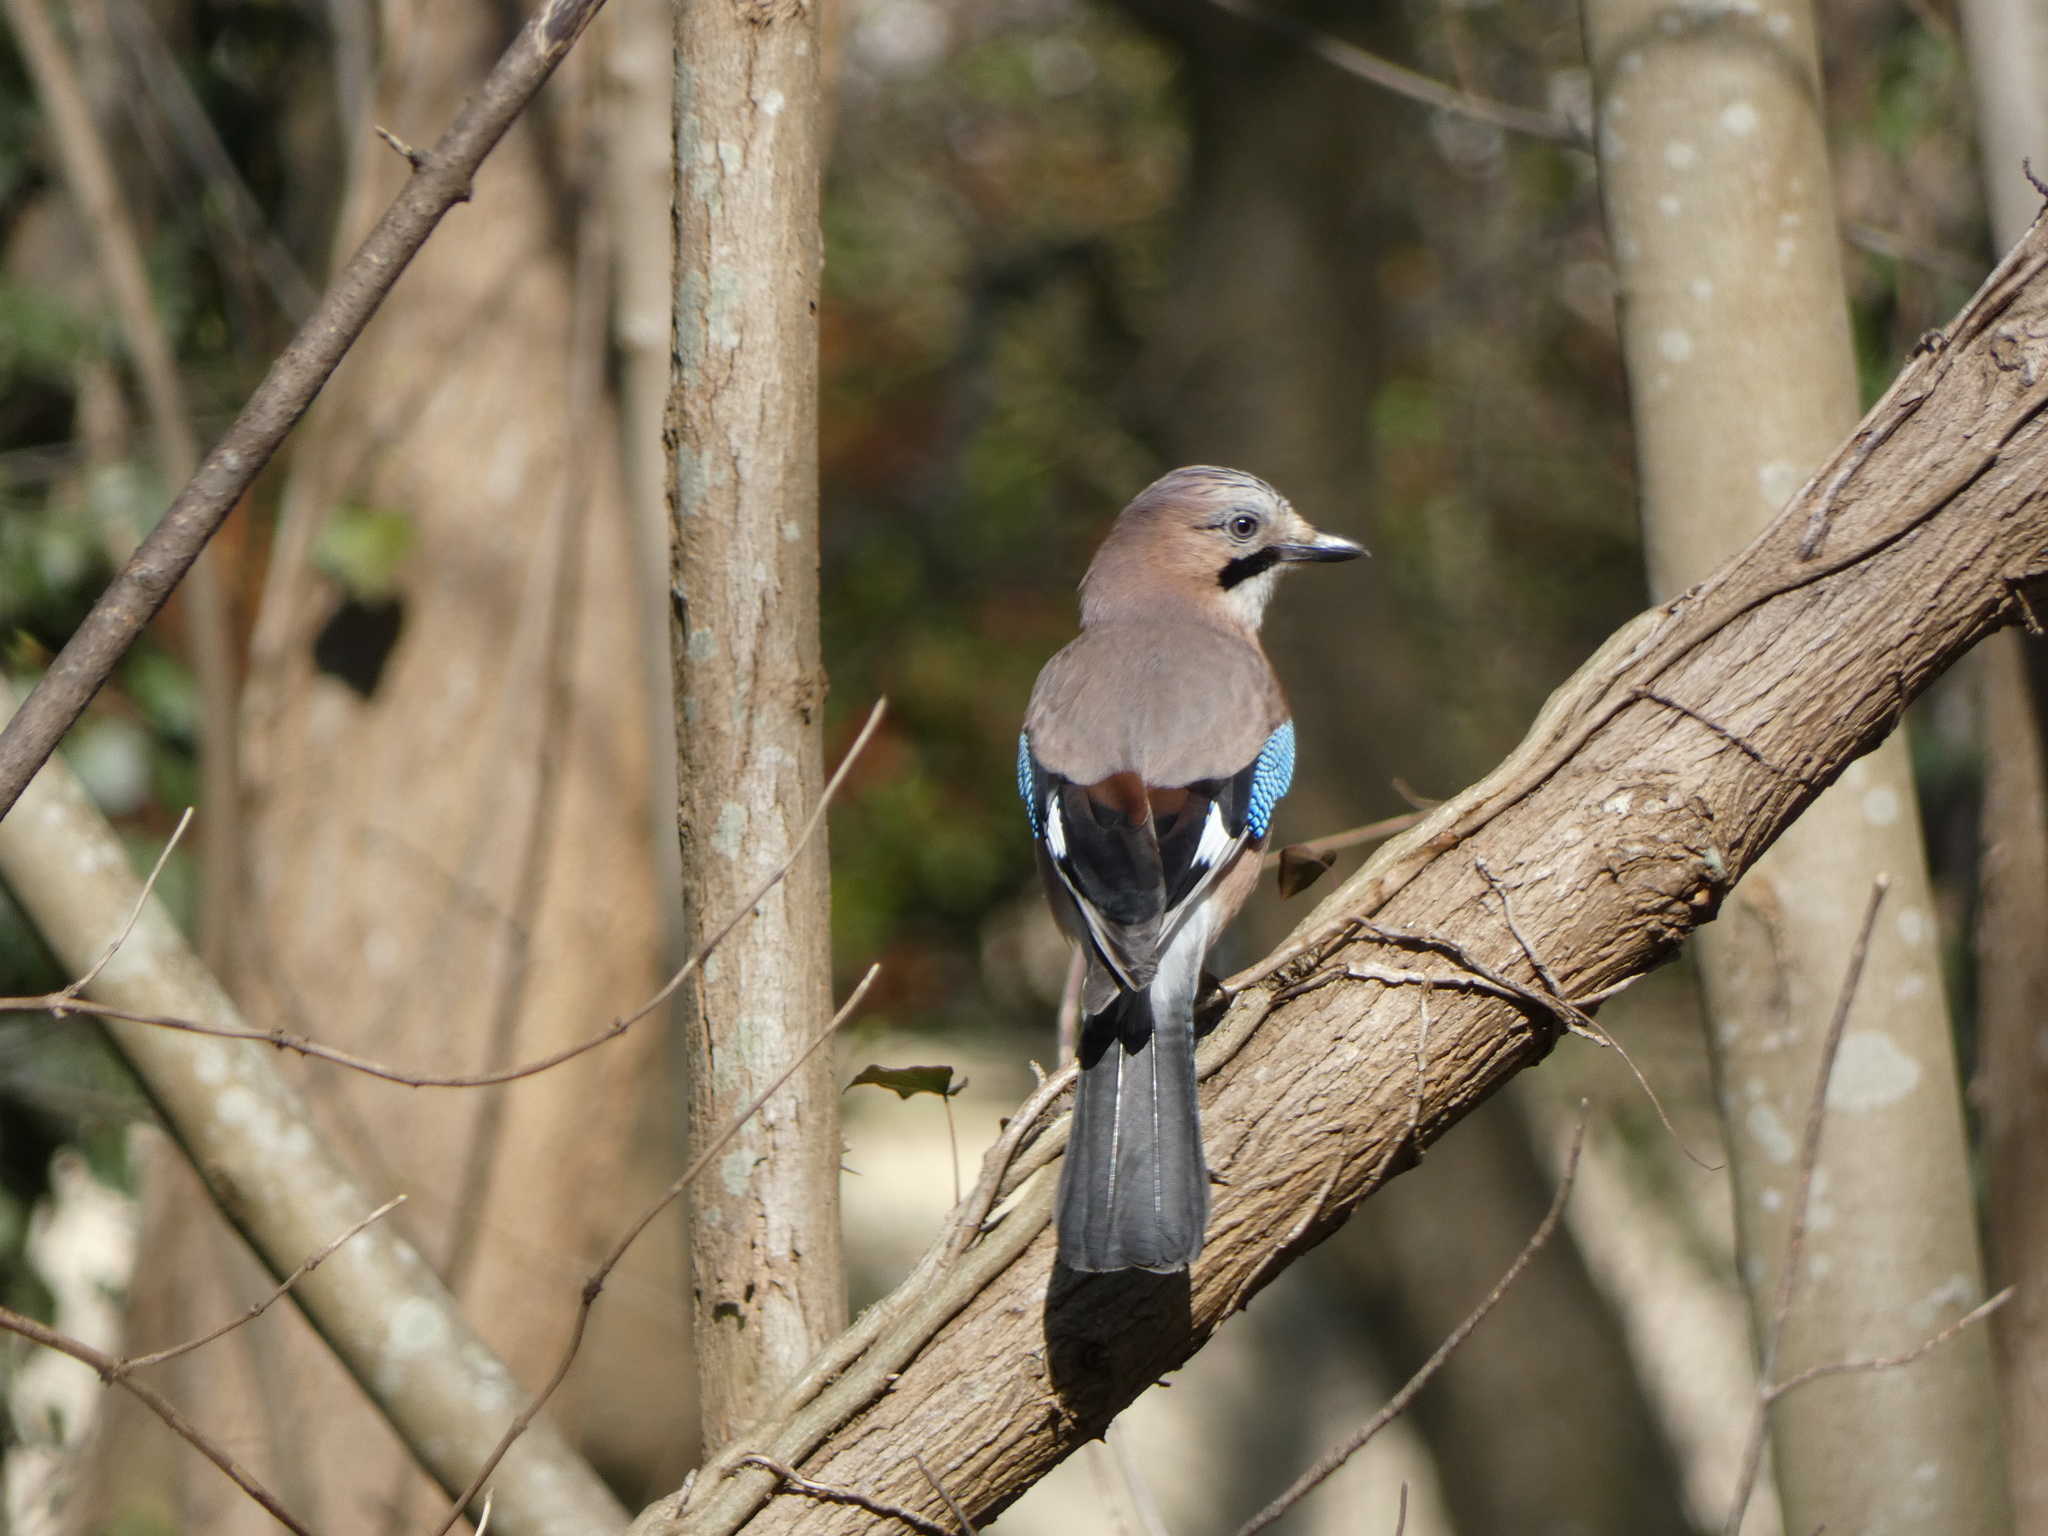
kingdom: Animalia
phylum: Chordata
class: Aves
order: Passeriformes
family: Corvidae
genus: Garrulus
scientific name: Garrulus glandarius
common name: Eurasian jay
